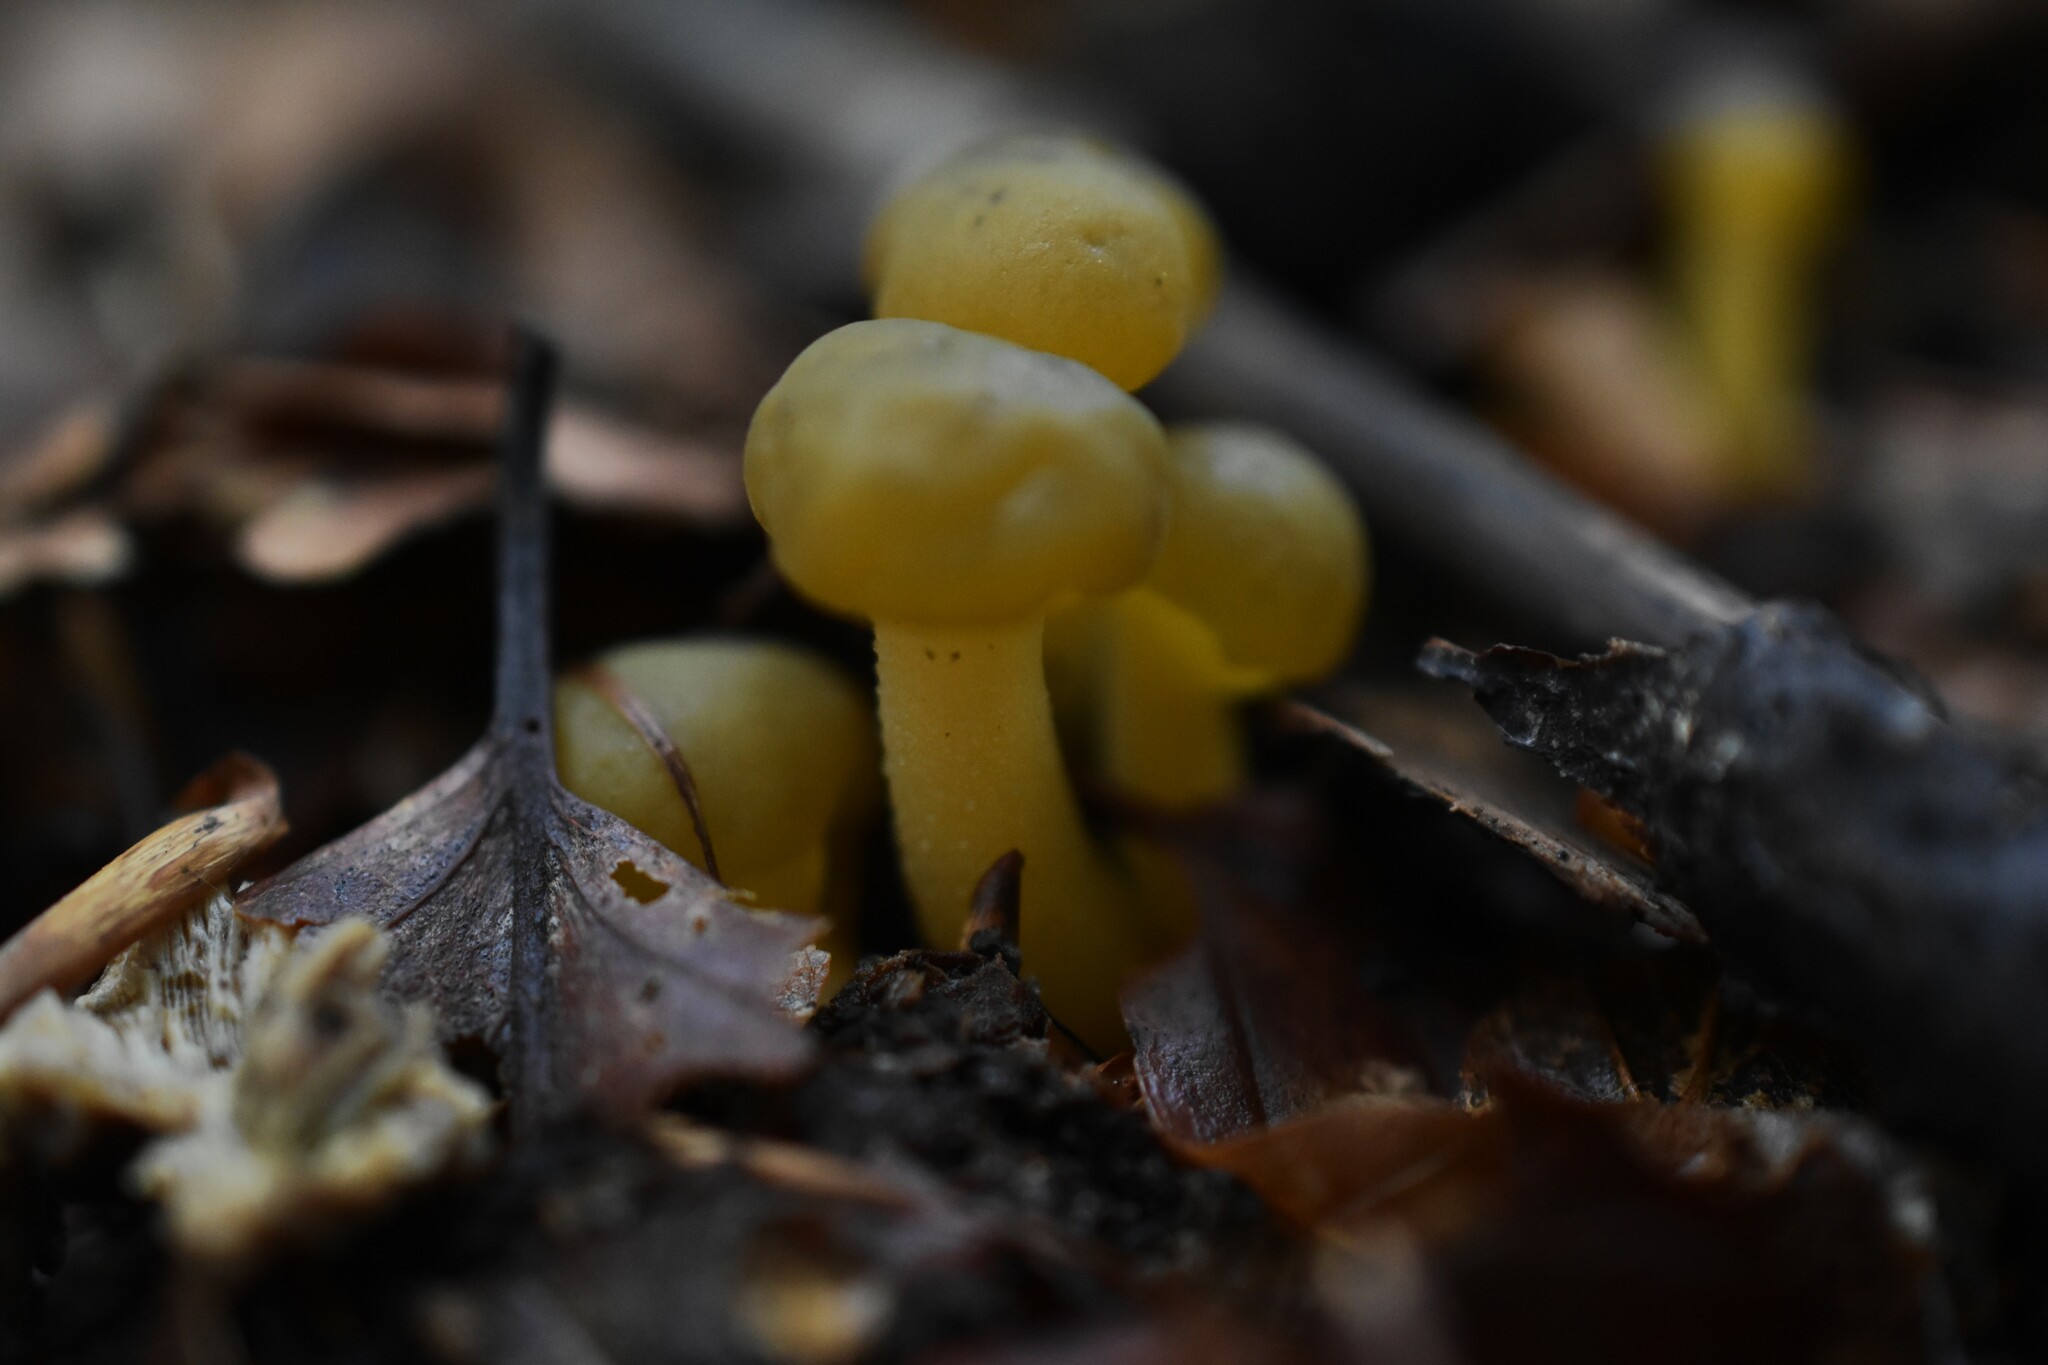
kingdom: Fungi
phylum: Ascomycota
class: Leotiomycetes
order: Leotiales
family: Leotiaceae
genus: Leotia
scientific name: Leotia lubrica
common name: Jellybaby
